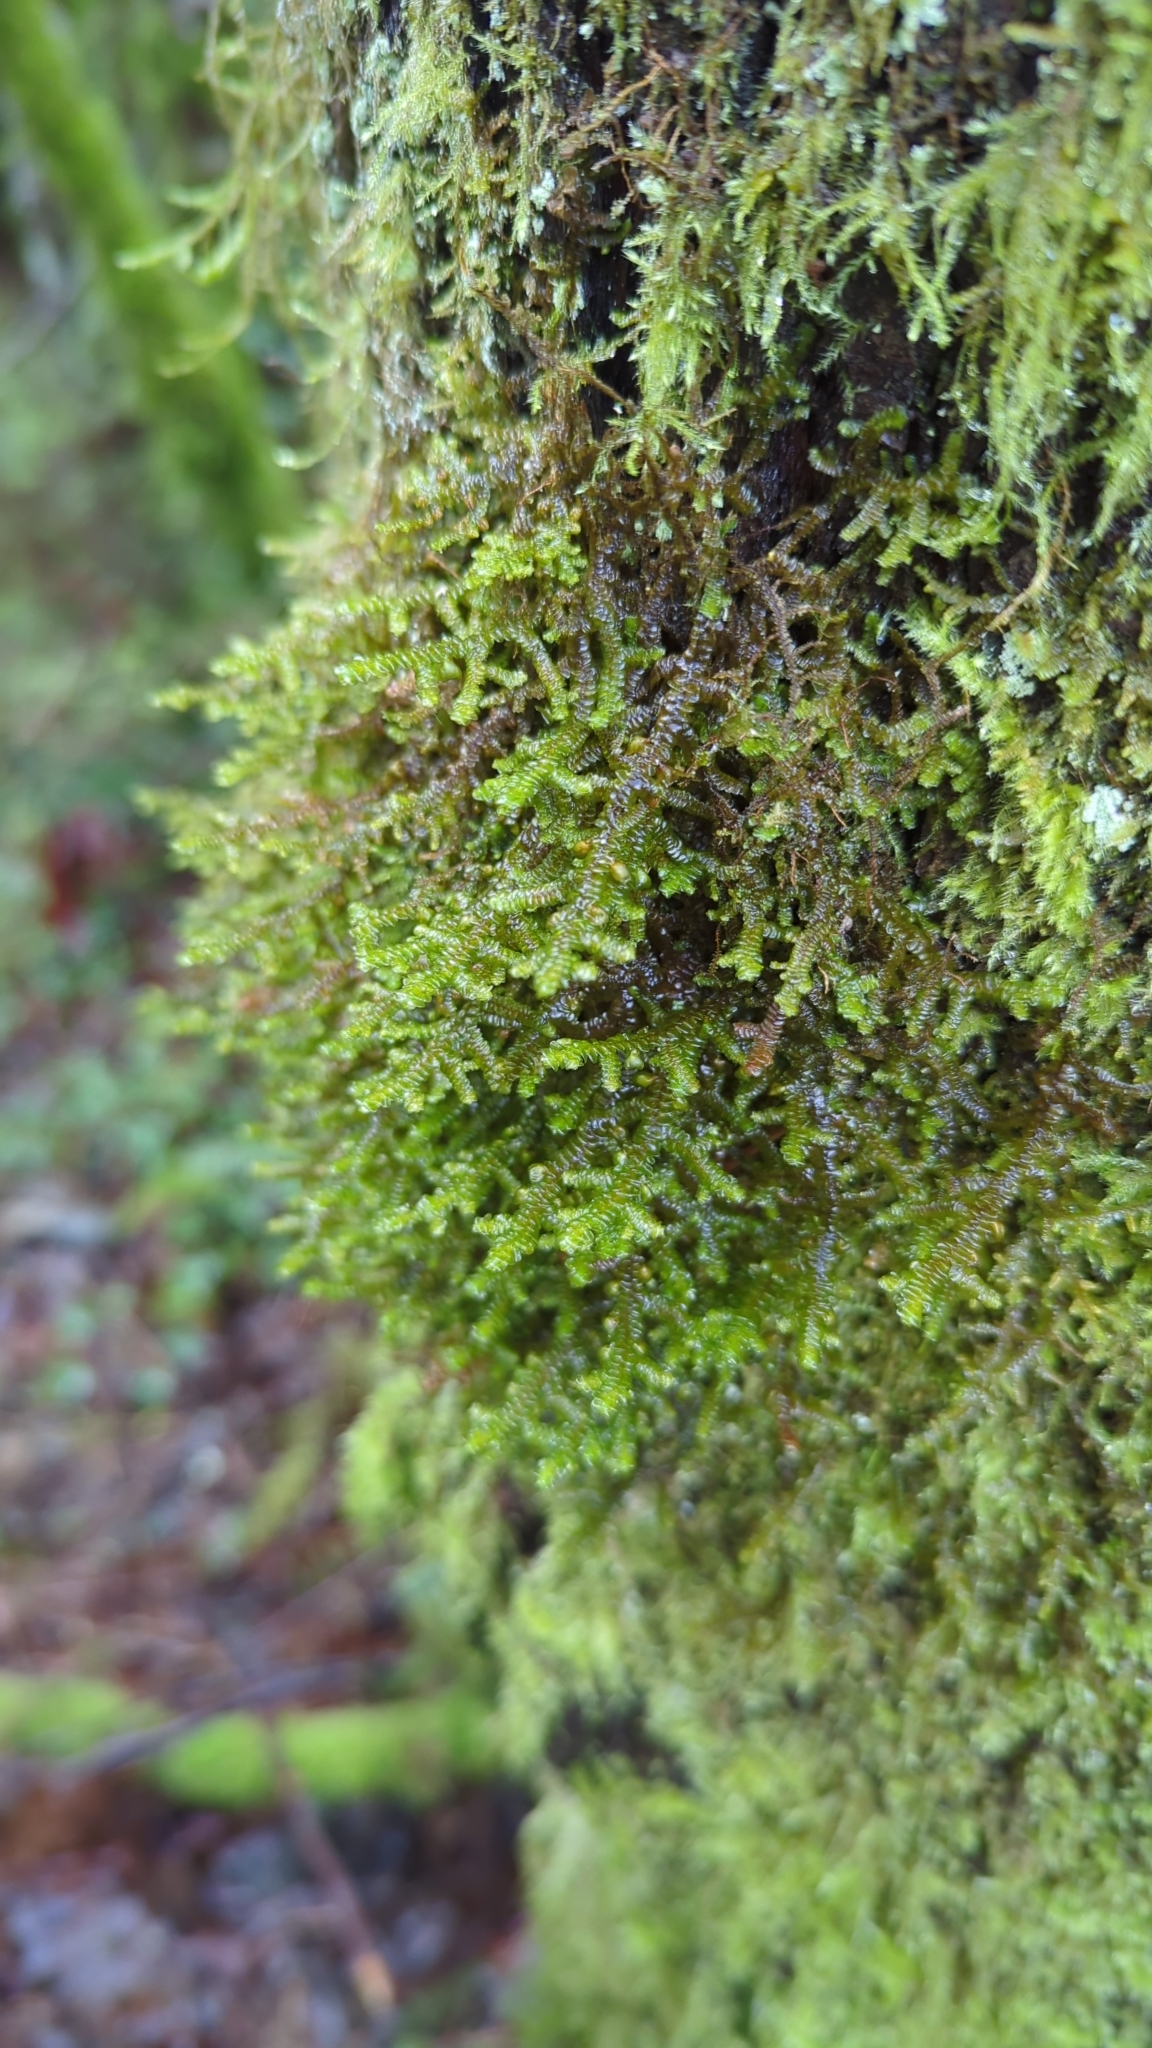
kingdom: Plantae
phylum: Marchantiophyta
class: Jungermanniopsida
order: Porellales
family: Porellaceae
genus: Porella
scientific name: Porella navicularis
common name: Tree ruffle liverwort
